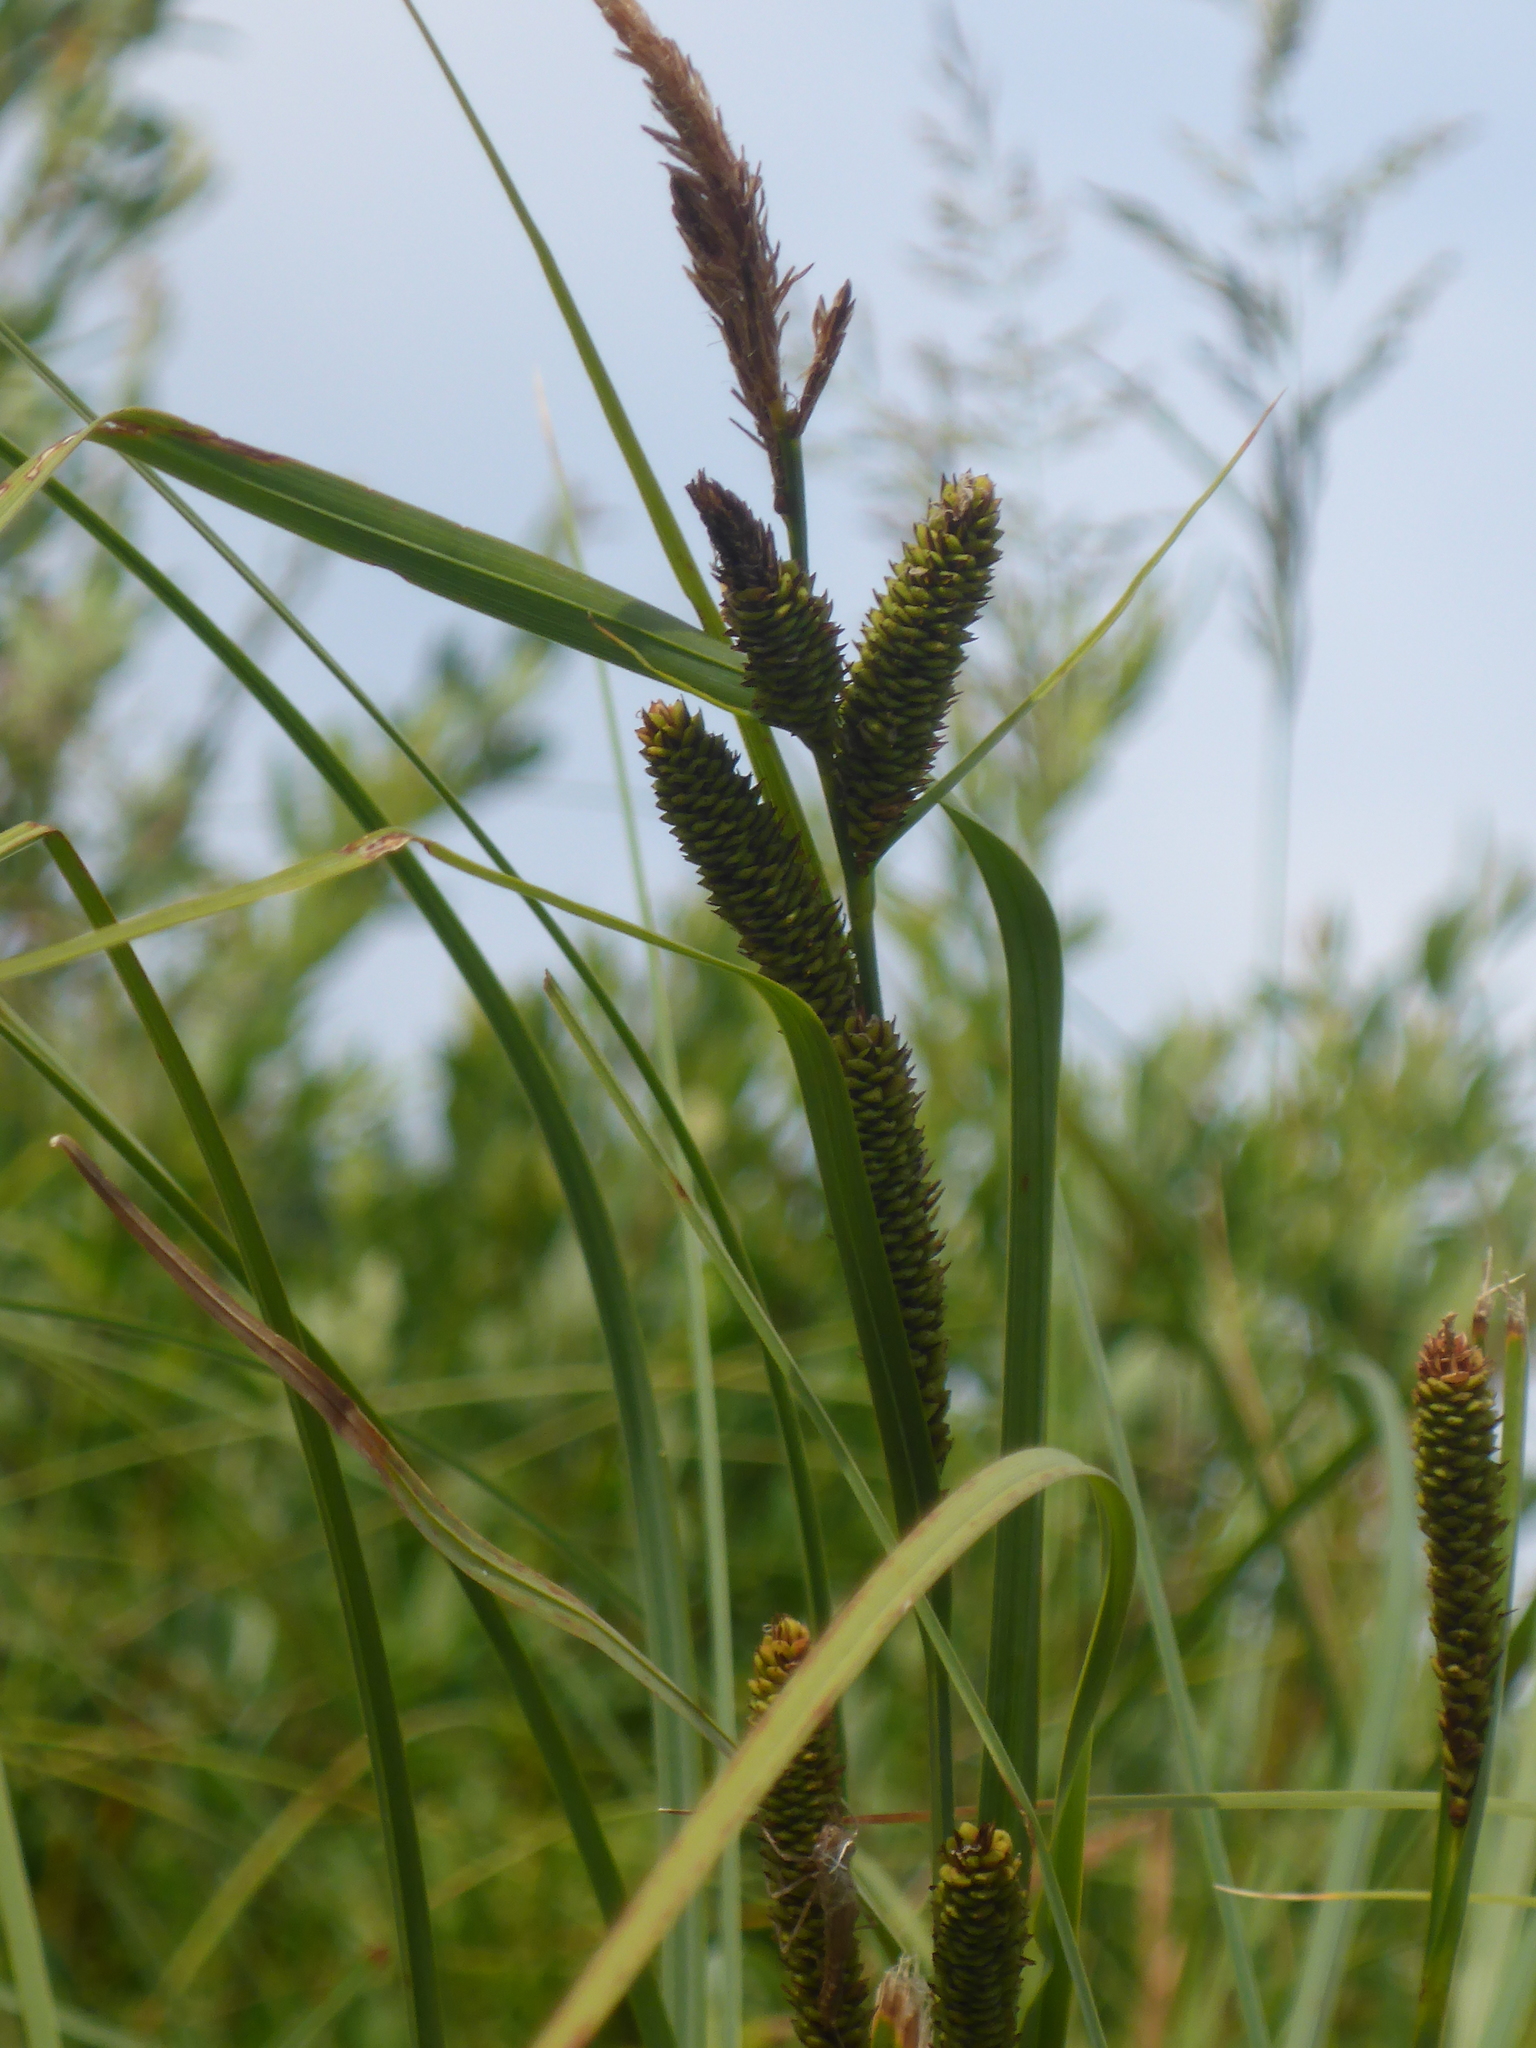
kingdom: Plantae
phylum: Tracheophyta
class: Liliopsida
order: Poales
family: Cyperaceae
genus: Carex
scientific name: Carex aquatilis
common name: Water sedge
